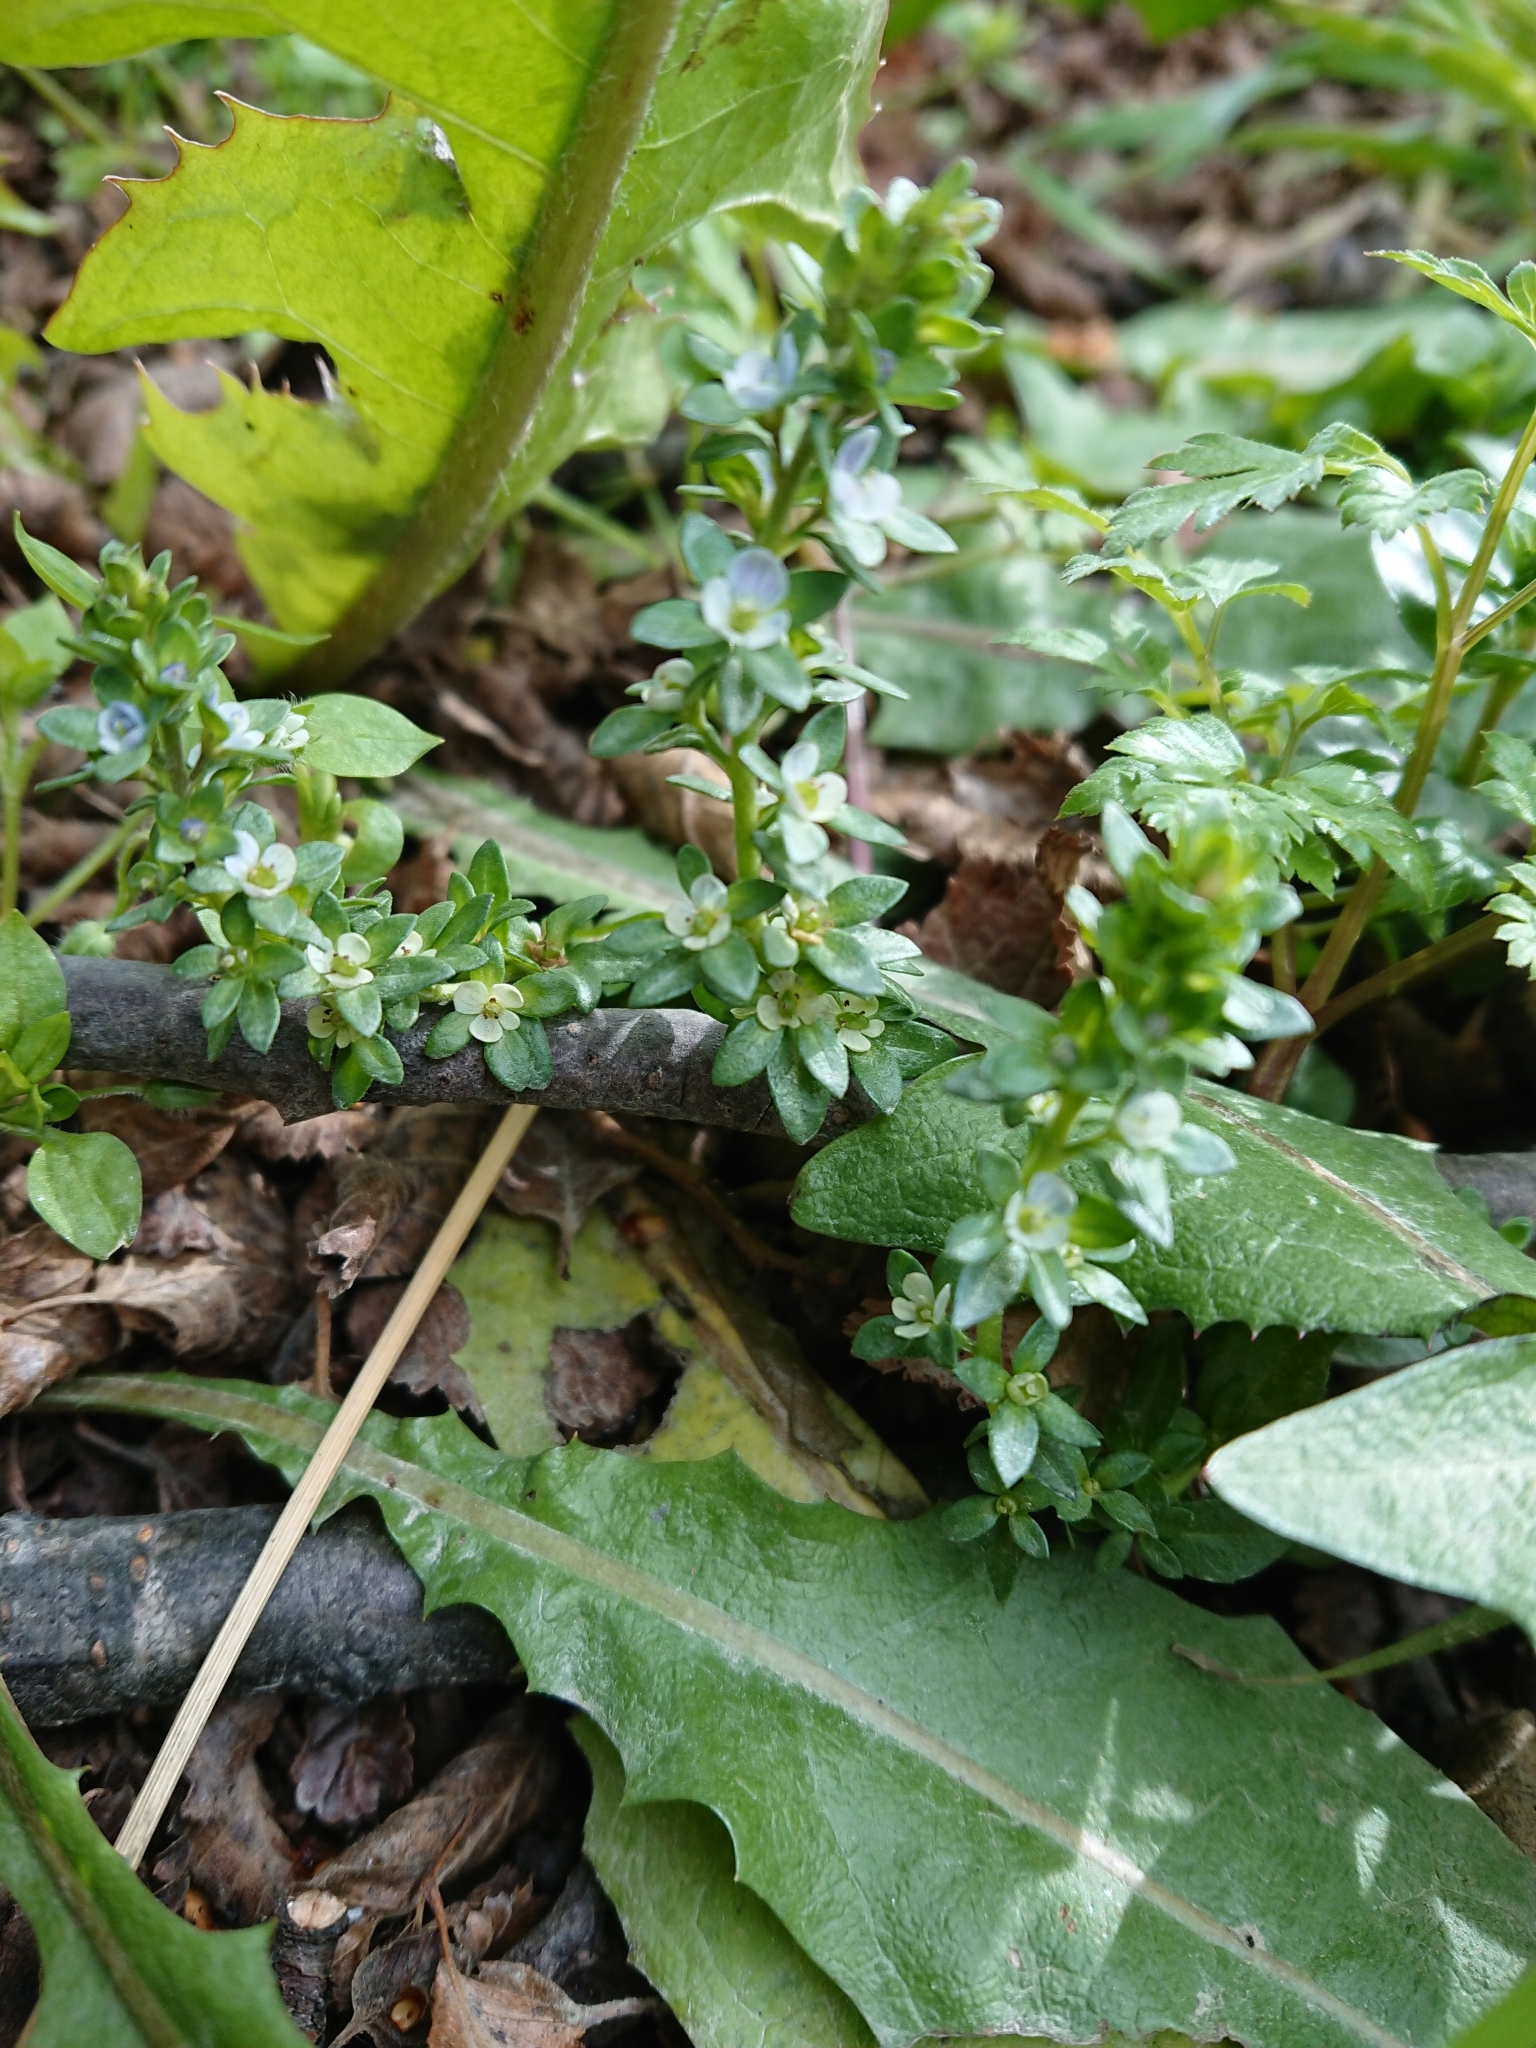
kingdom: Plantae
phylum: Tracheophyta
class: Magnoliopsida
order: Lamiales
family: Plantaginaceae
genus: Veronica
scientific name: Veronica serpyllifolia
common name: Thyme-leaved speedwell
